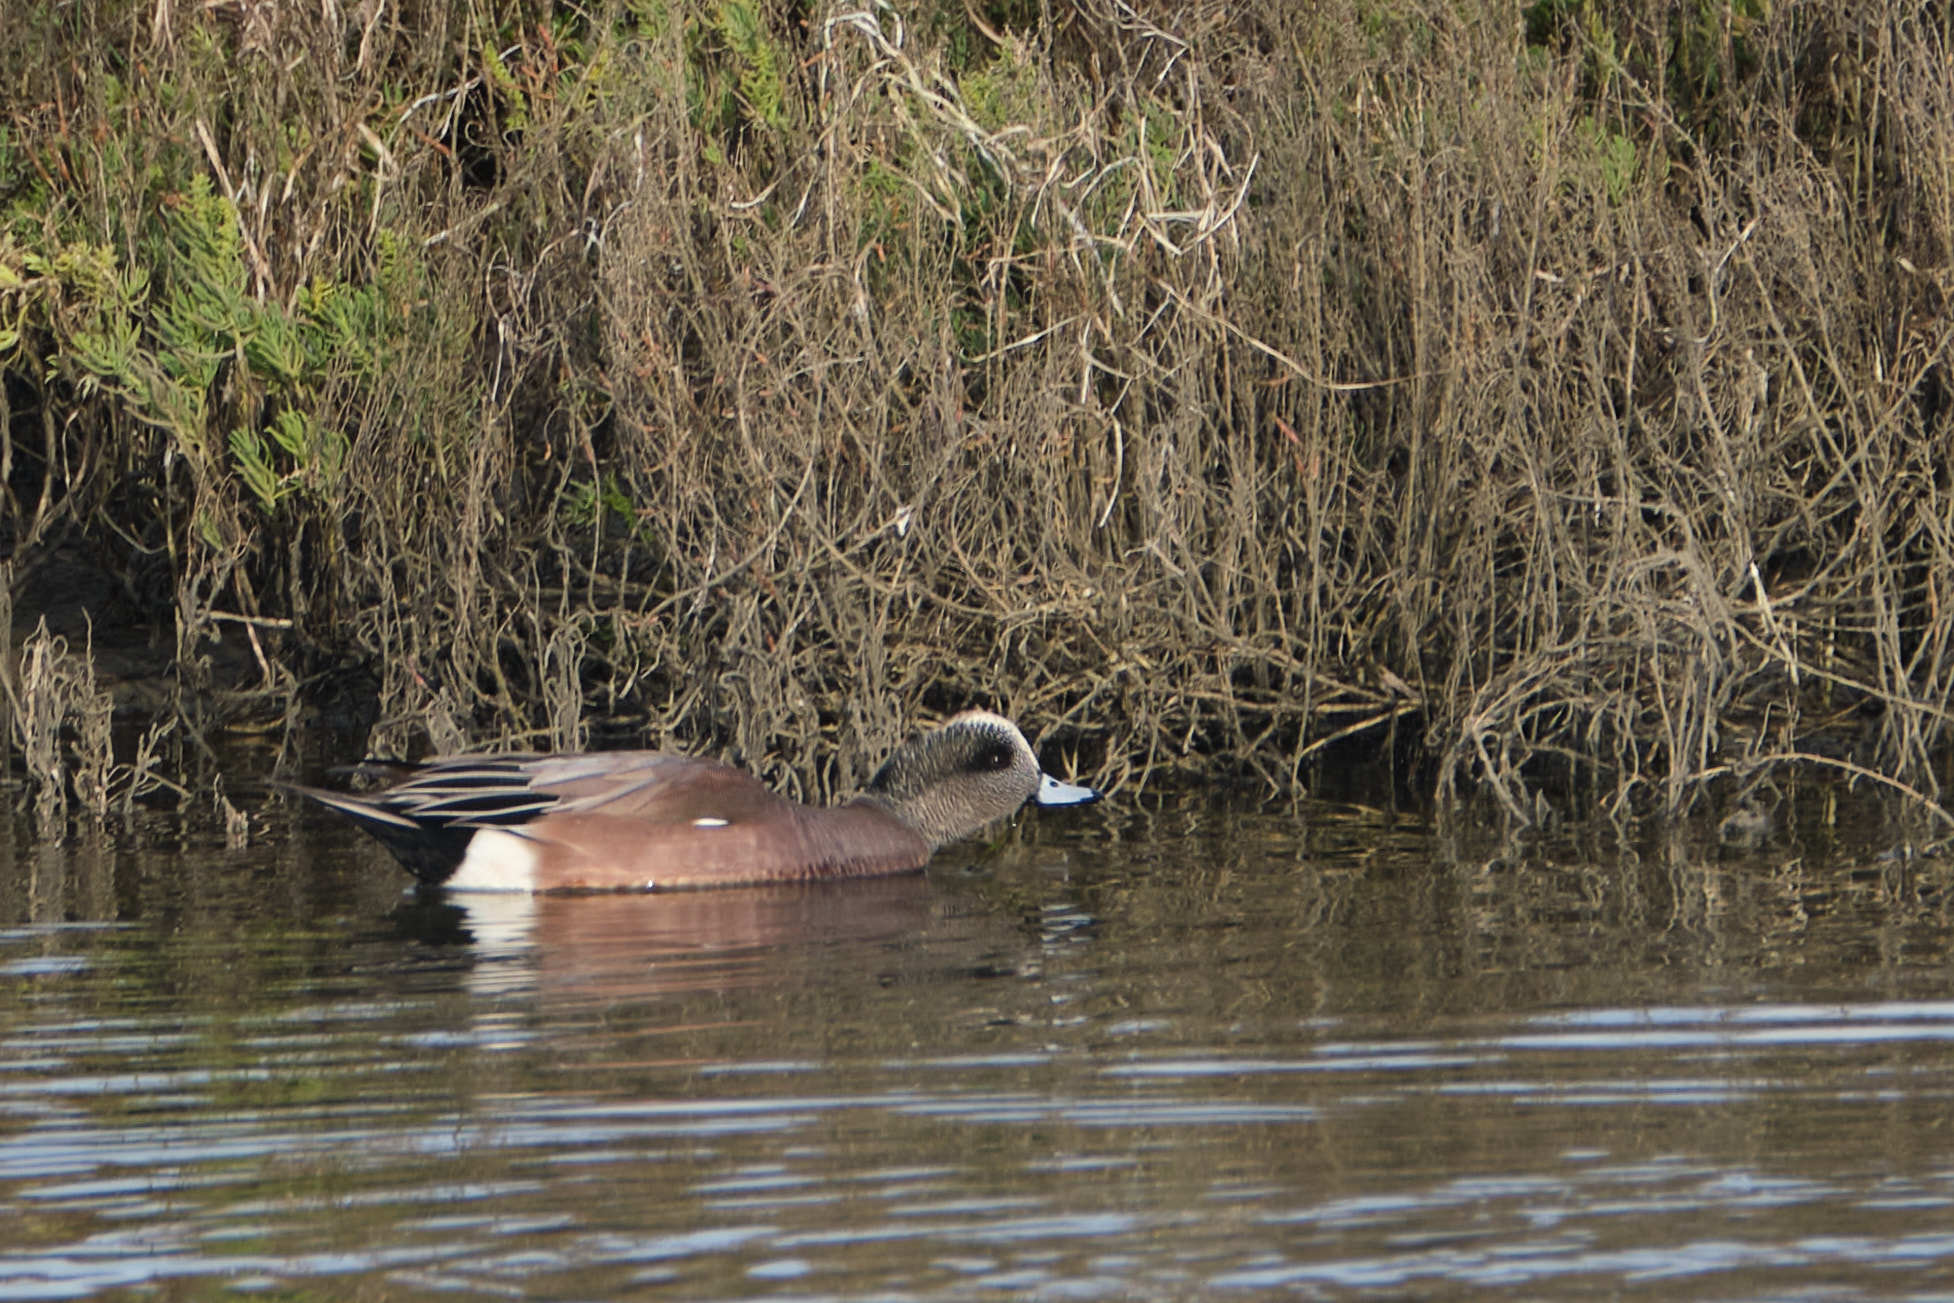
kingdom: Animalia
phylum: Chordata
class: Aves
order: Anseriformes
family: Anatidae
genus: Mareca
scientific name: Mareca americana
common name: American wigeon
